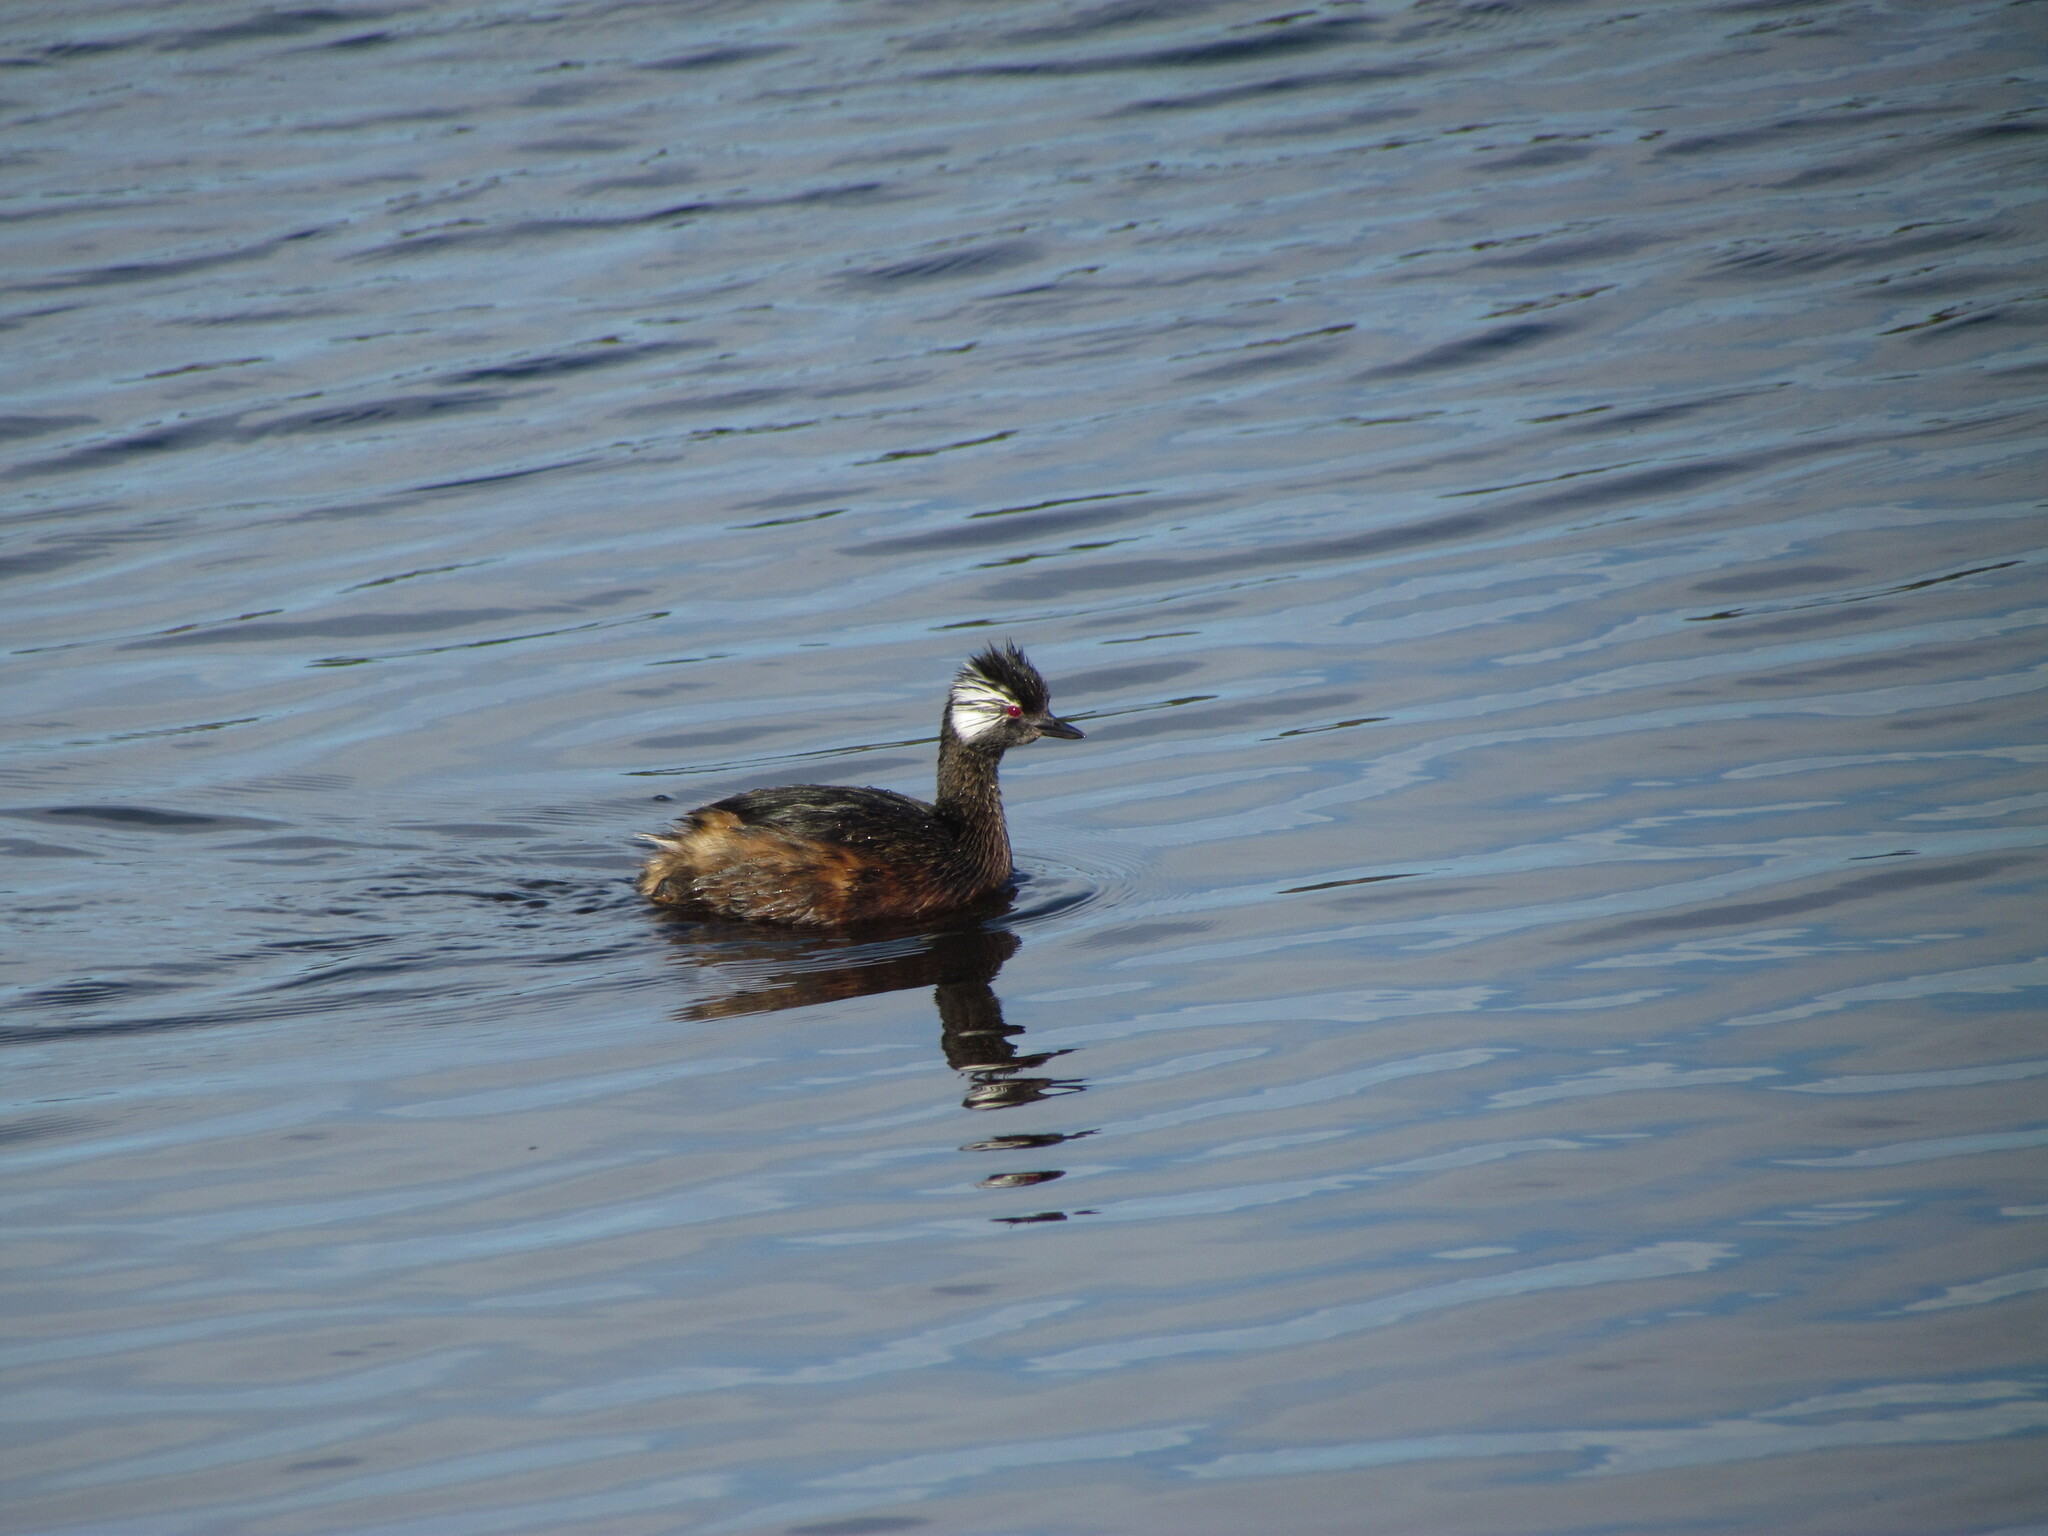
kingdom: Animalia
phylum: Chordata
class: Aves
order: Podicipediformes
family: Podicipedidae
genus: Rollandia
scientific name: Rollandia rolland
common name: White-tufted grebe
